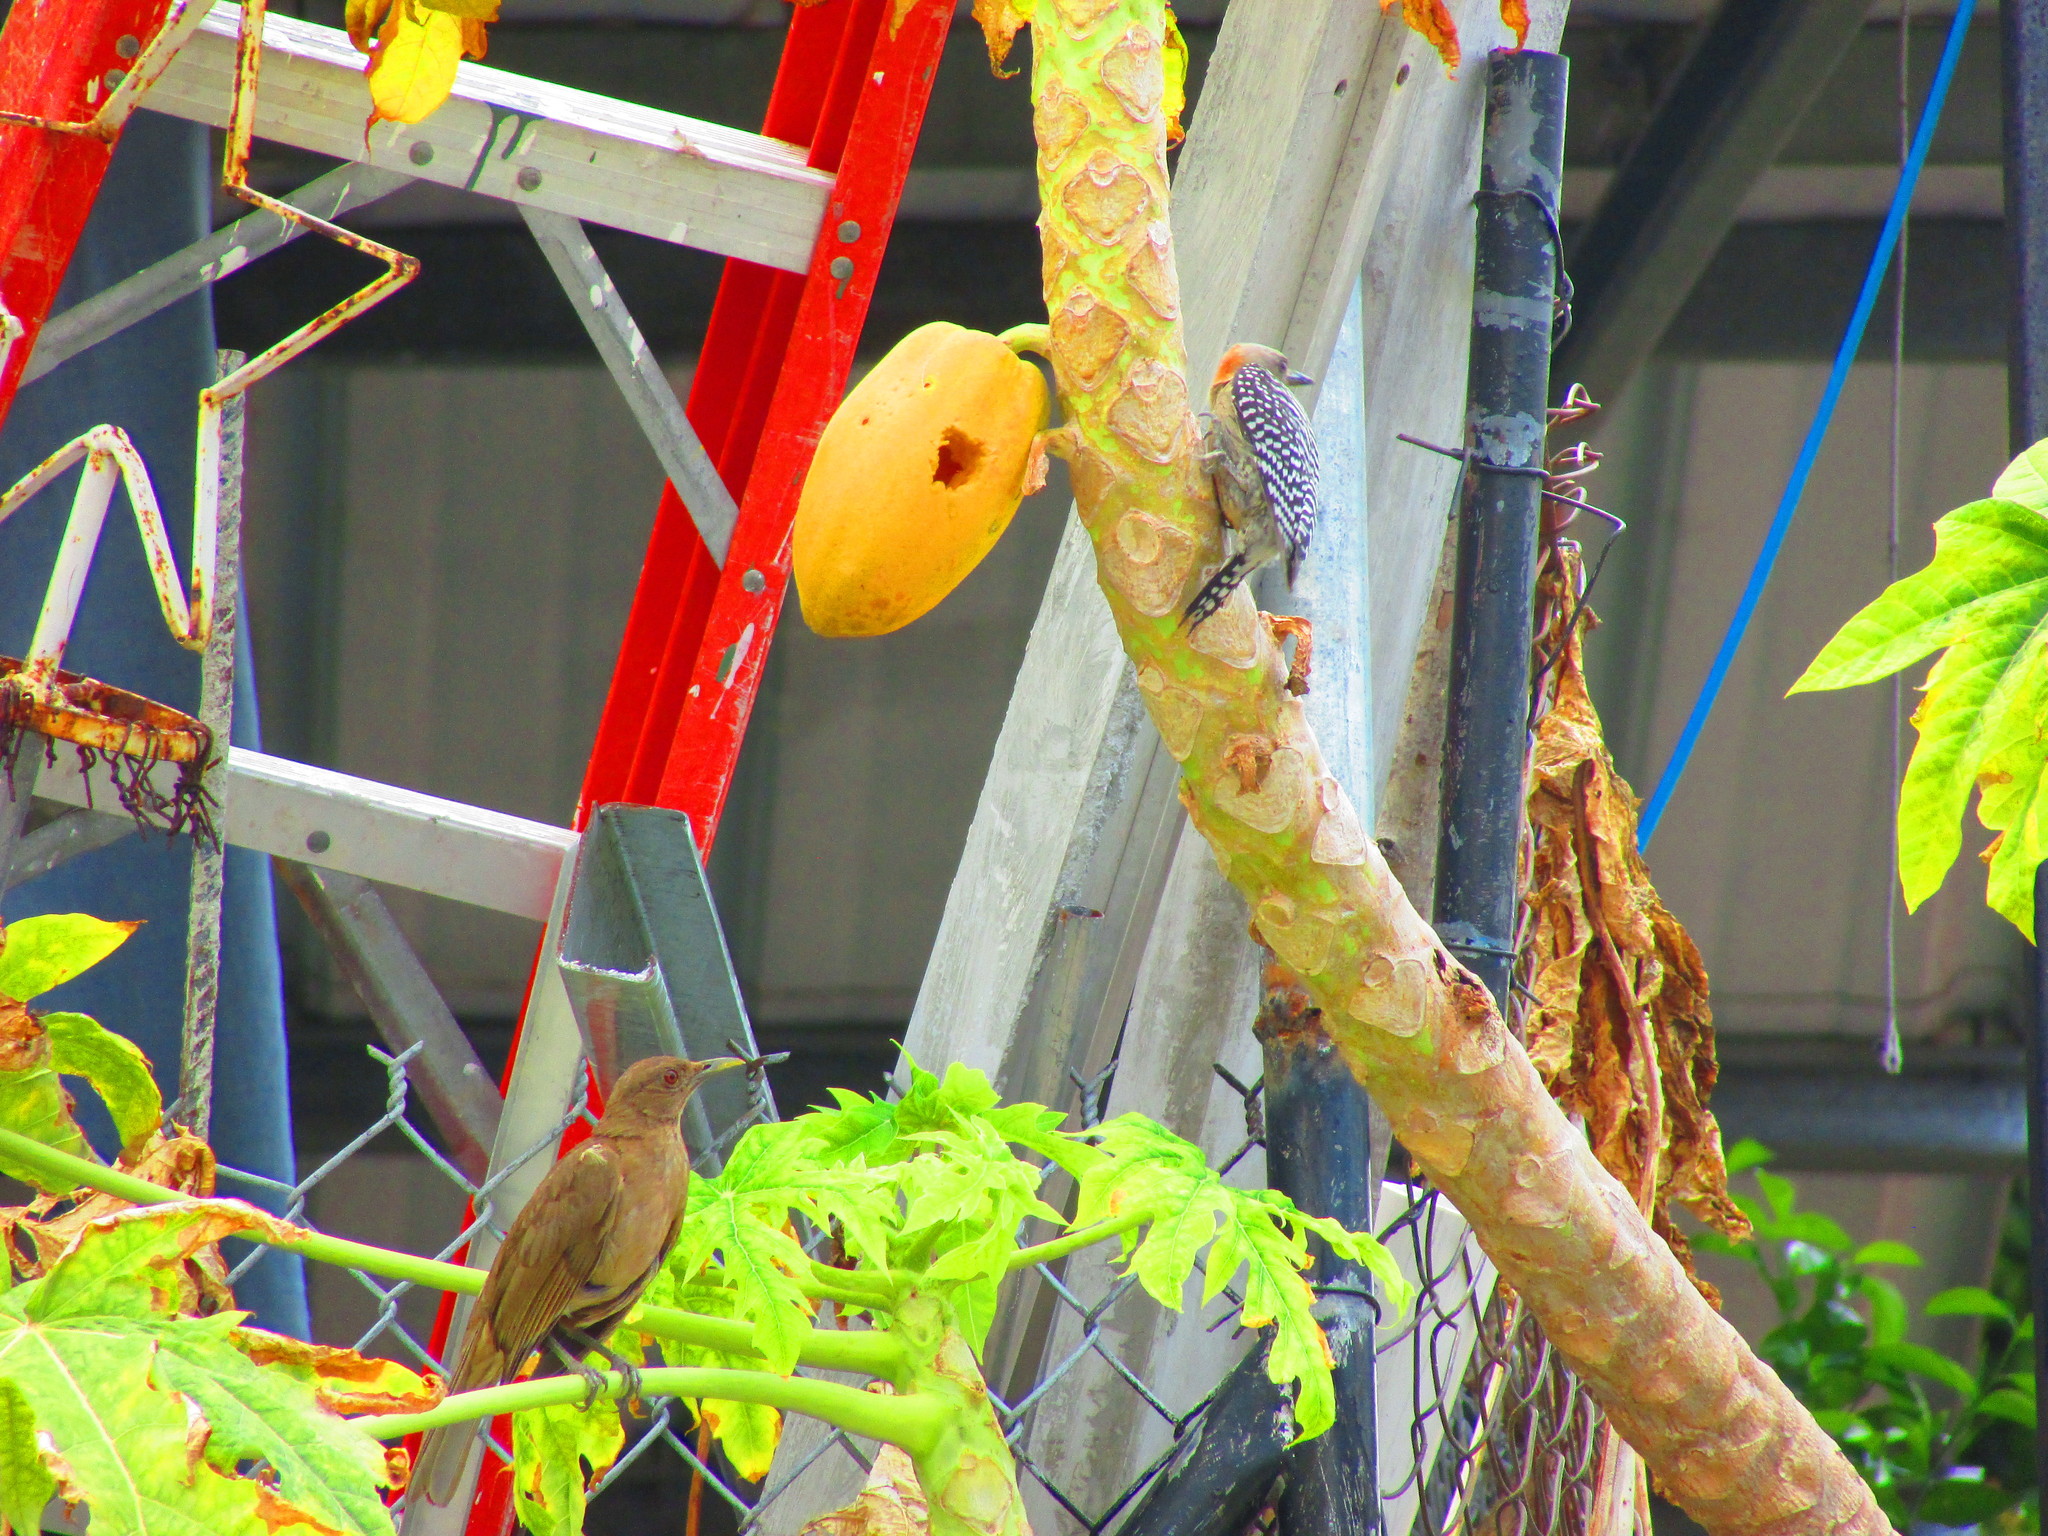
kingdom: Animalia
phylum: Chordata
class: Aves
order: Passeriformes
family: Turdidae
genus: Turdus
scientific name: Turdus grayi
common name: Clay-colored thrush
